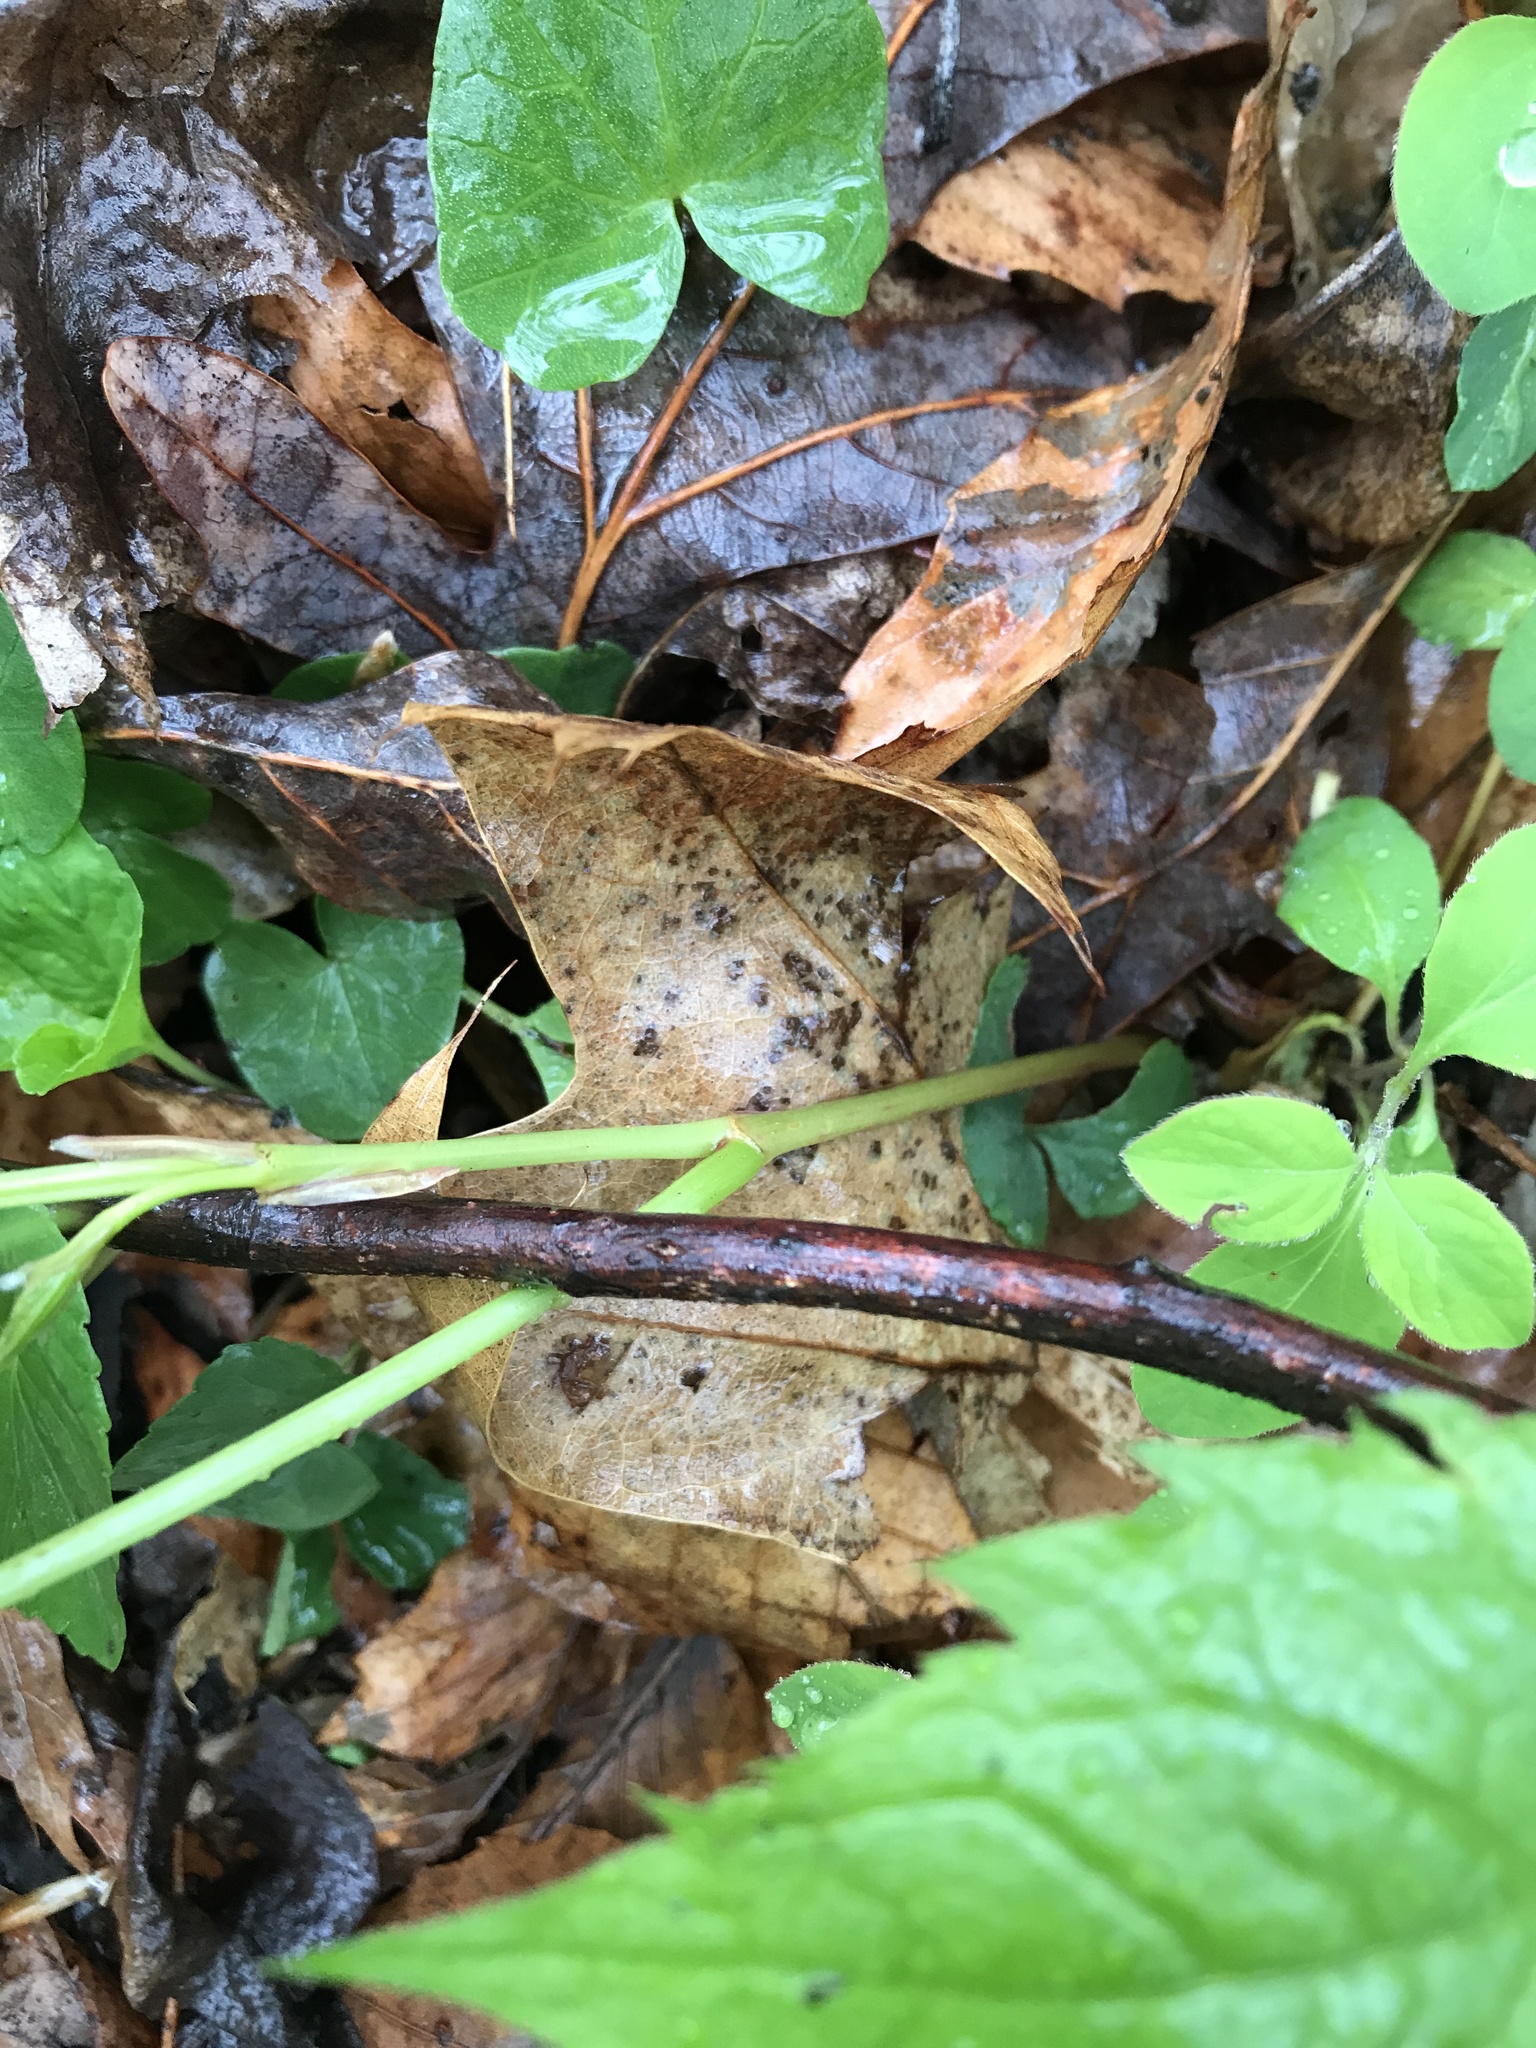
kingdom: Plantae
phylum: Tracheophyta
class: Magnoliopsida
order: Vitales
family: Vitaceae
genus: Parthenocissus
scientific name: Parthenocissus quinquefolia
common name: Virginia-creeper
